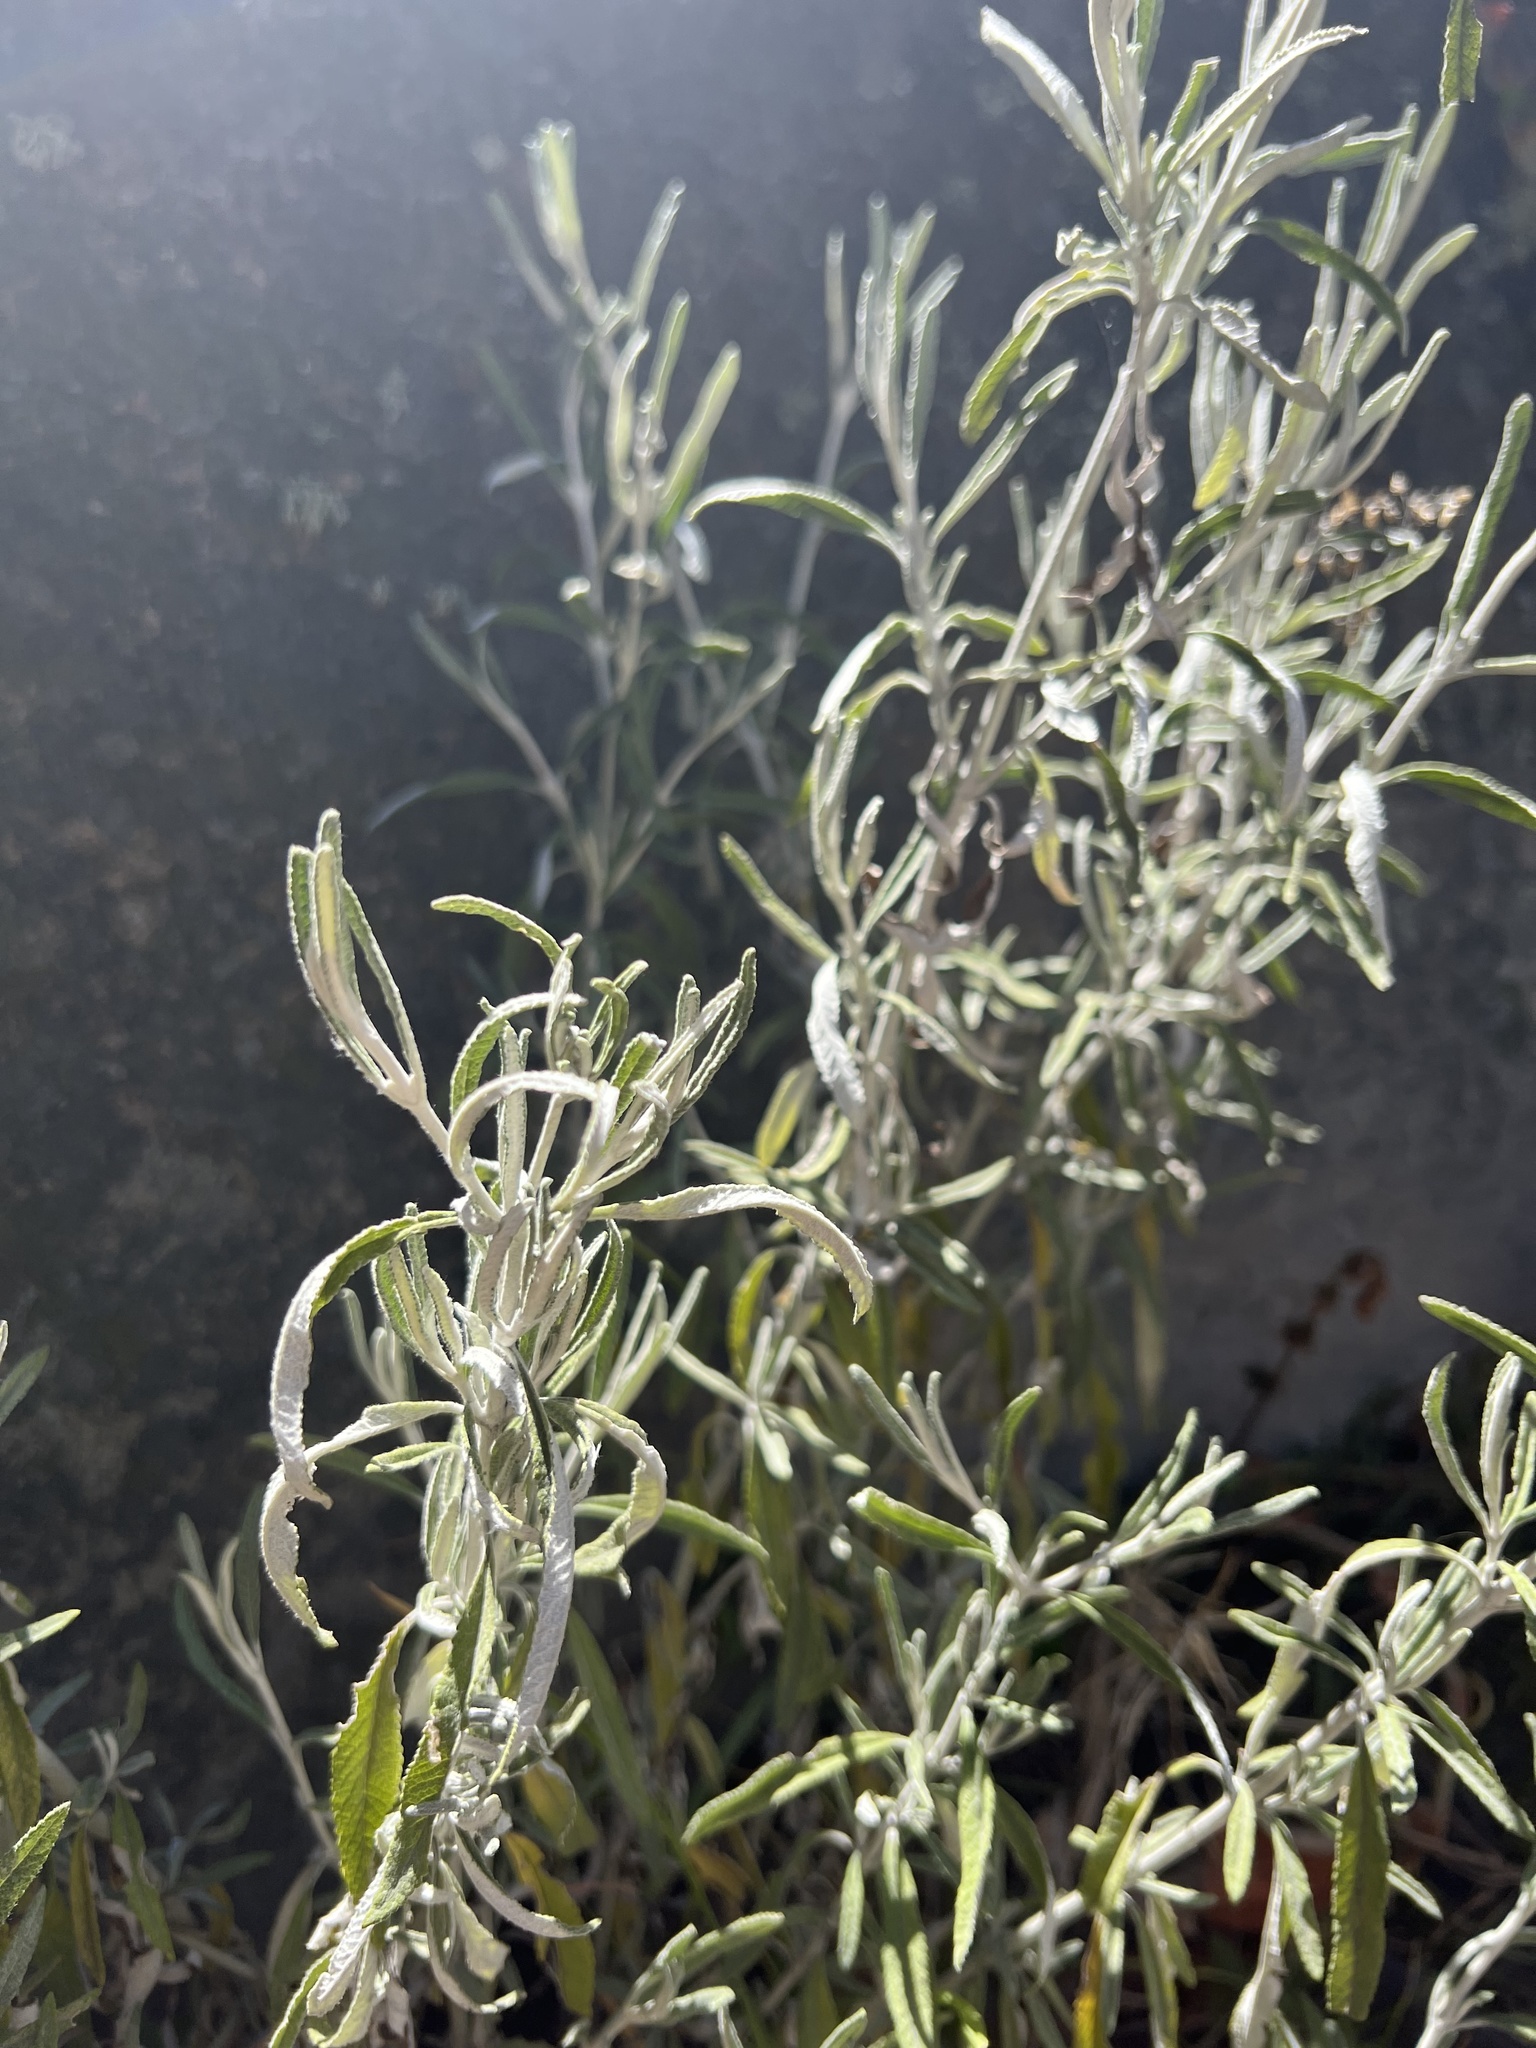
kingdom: Plantae
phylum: Tracheophyta
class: Magnoliopsida
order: Asterales
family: Asteraceae
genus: Lourteigia
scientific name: Lourteigia stoechadifolia
